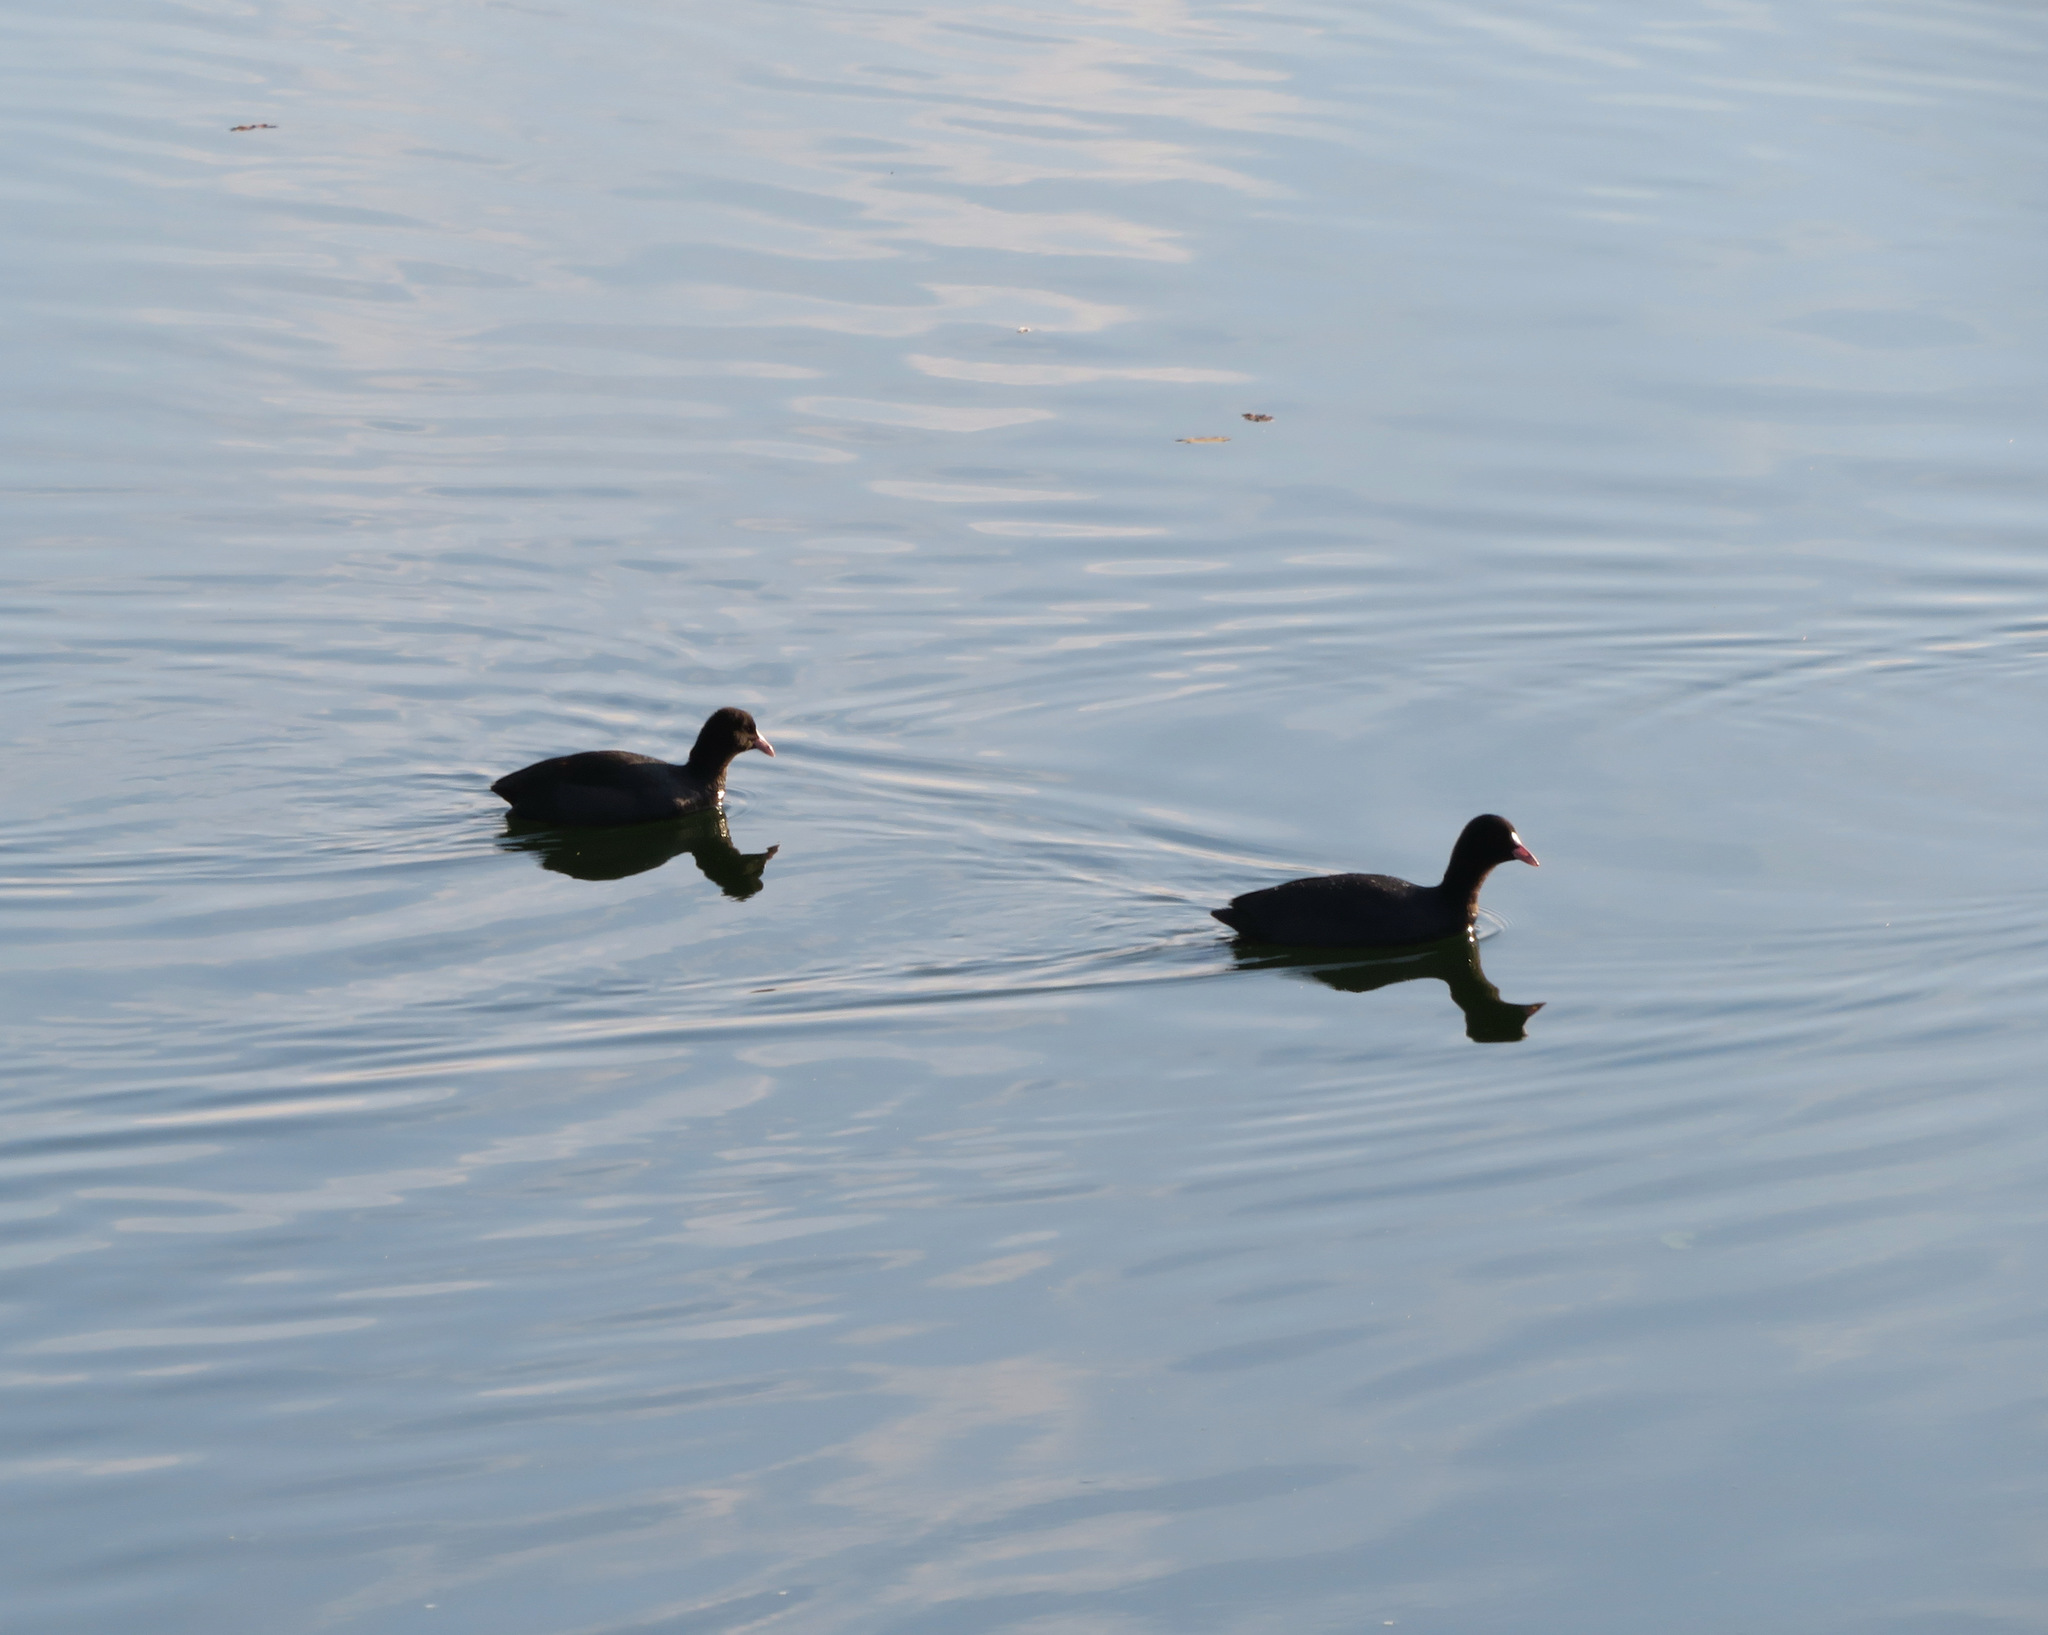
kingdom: Animalia
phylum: Chordata
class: Aves
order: Gruiformes
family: Rallidae
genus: Fulica
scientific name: Fulica atra
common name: Eurasian coot
